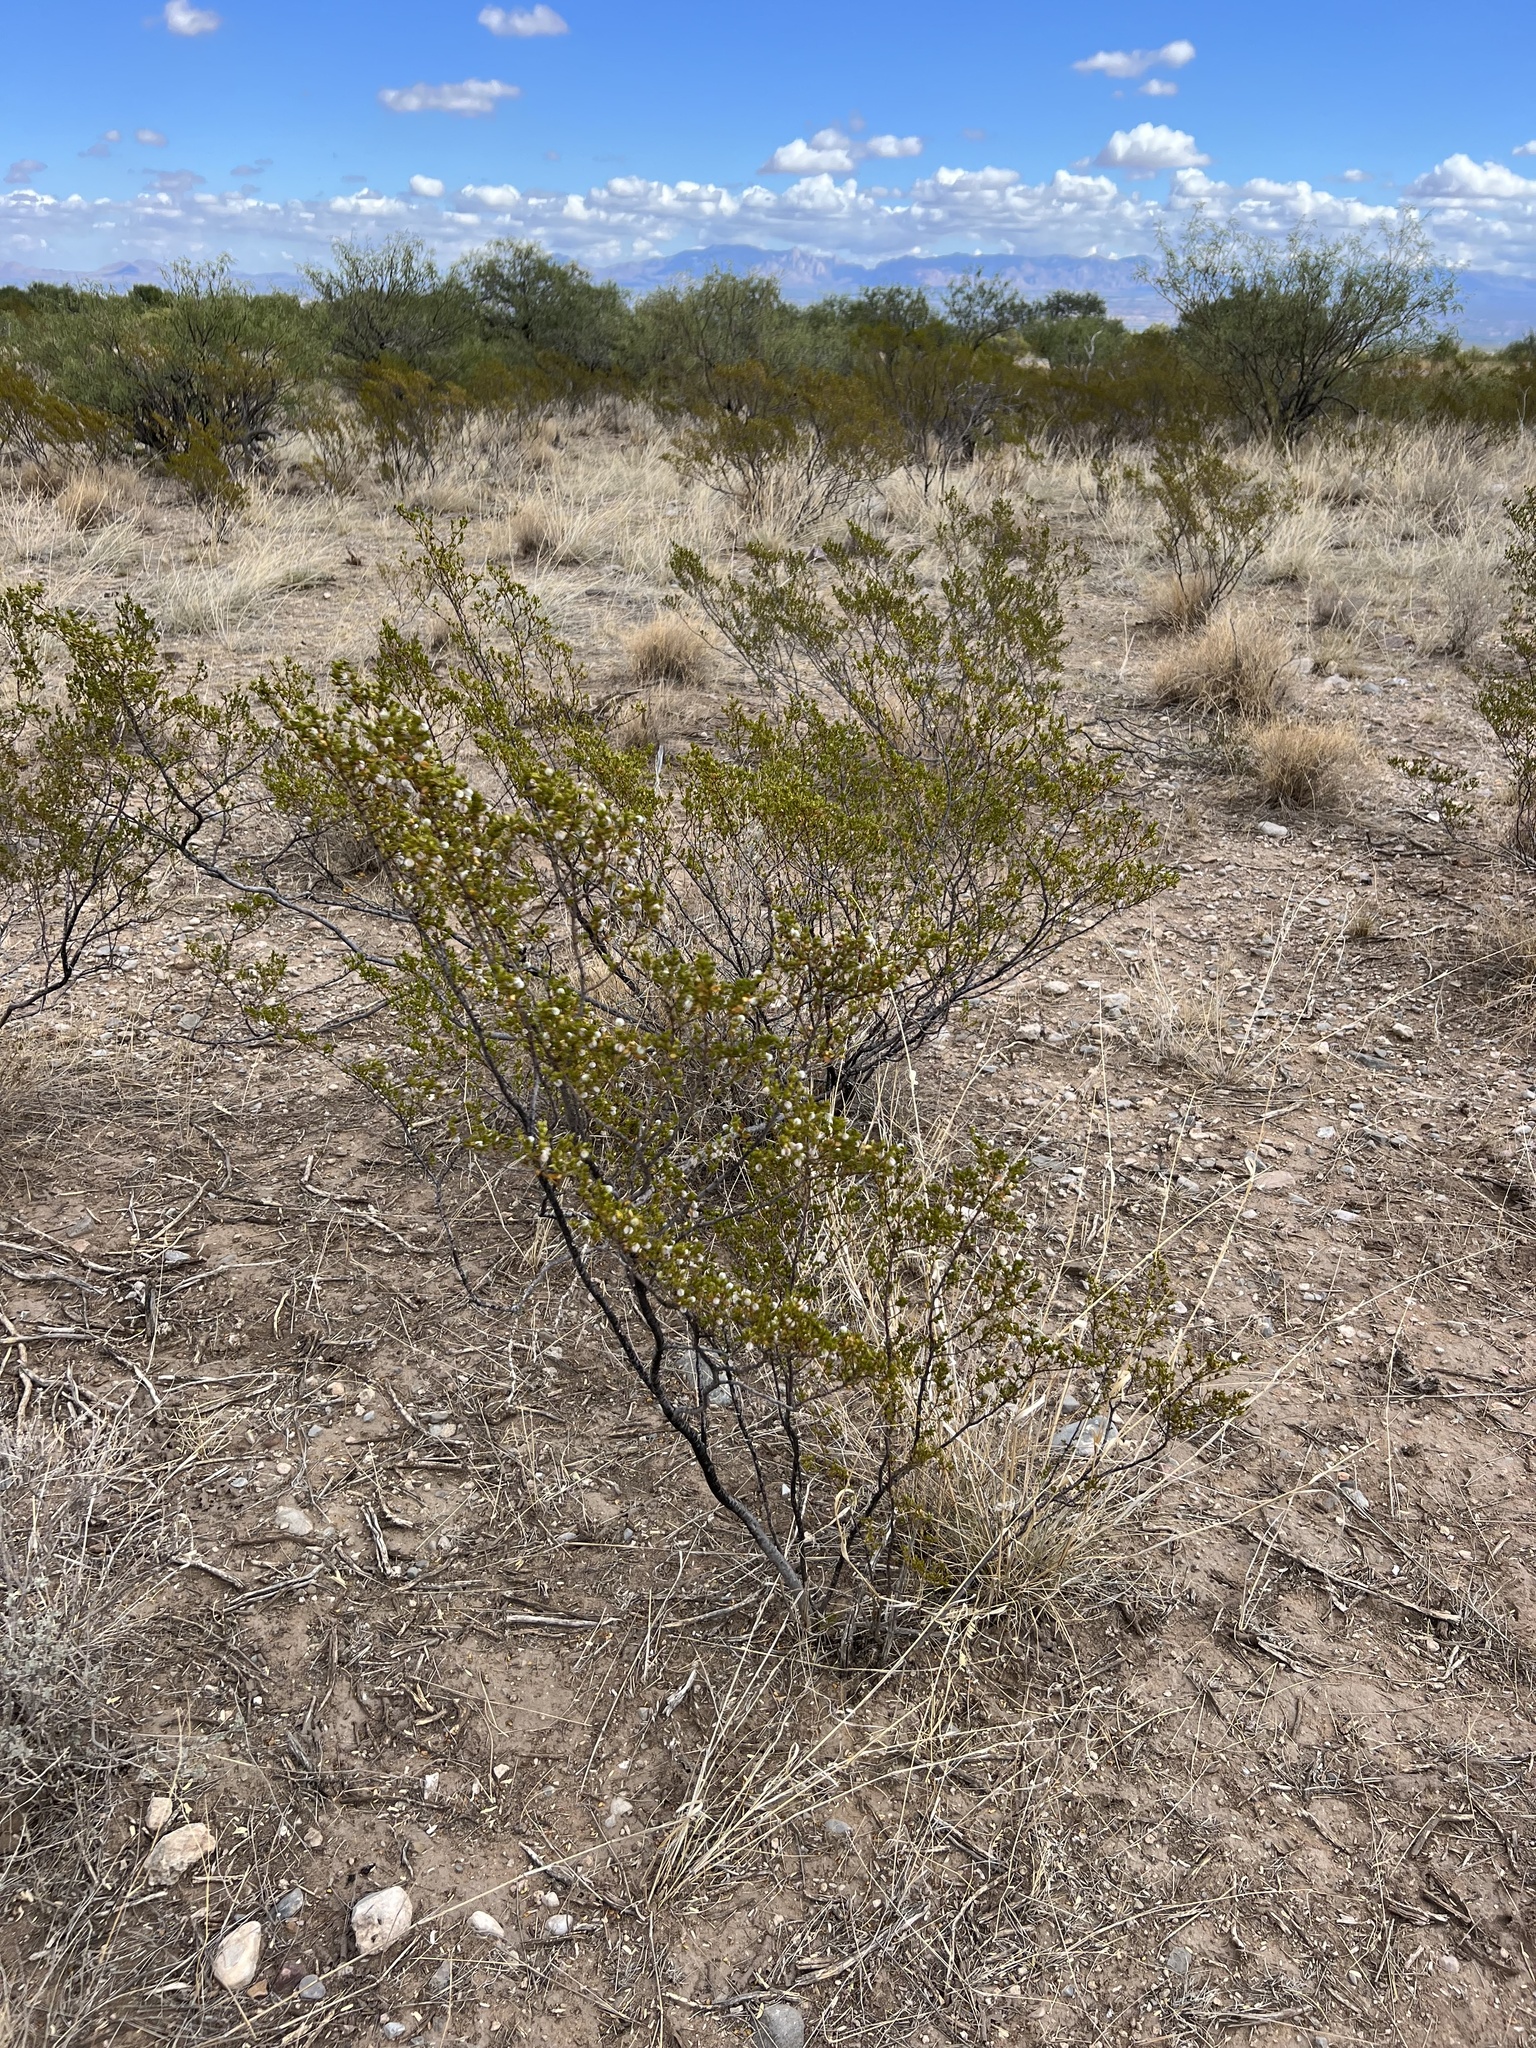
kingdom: Plantae
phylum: Tracheophyta
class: Magnoliopsida
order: Zygophyllales
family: Zygophyllaceae
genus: Larrea
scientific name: Larrea tridentata
